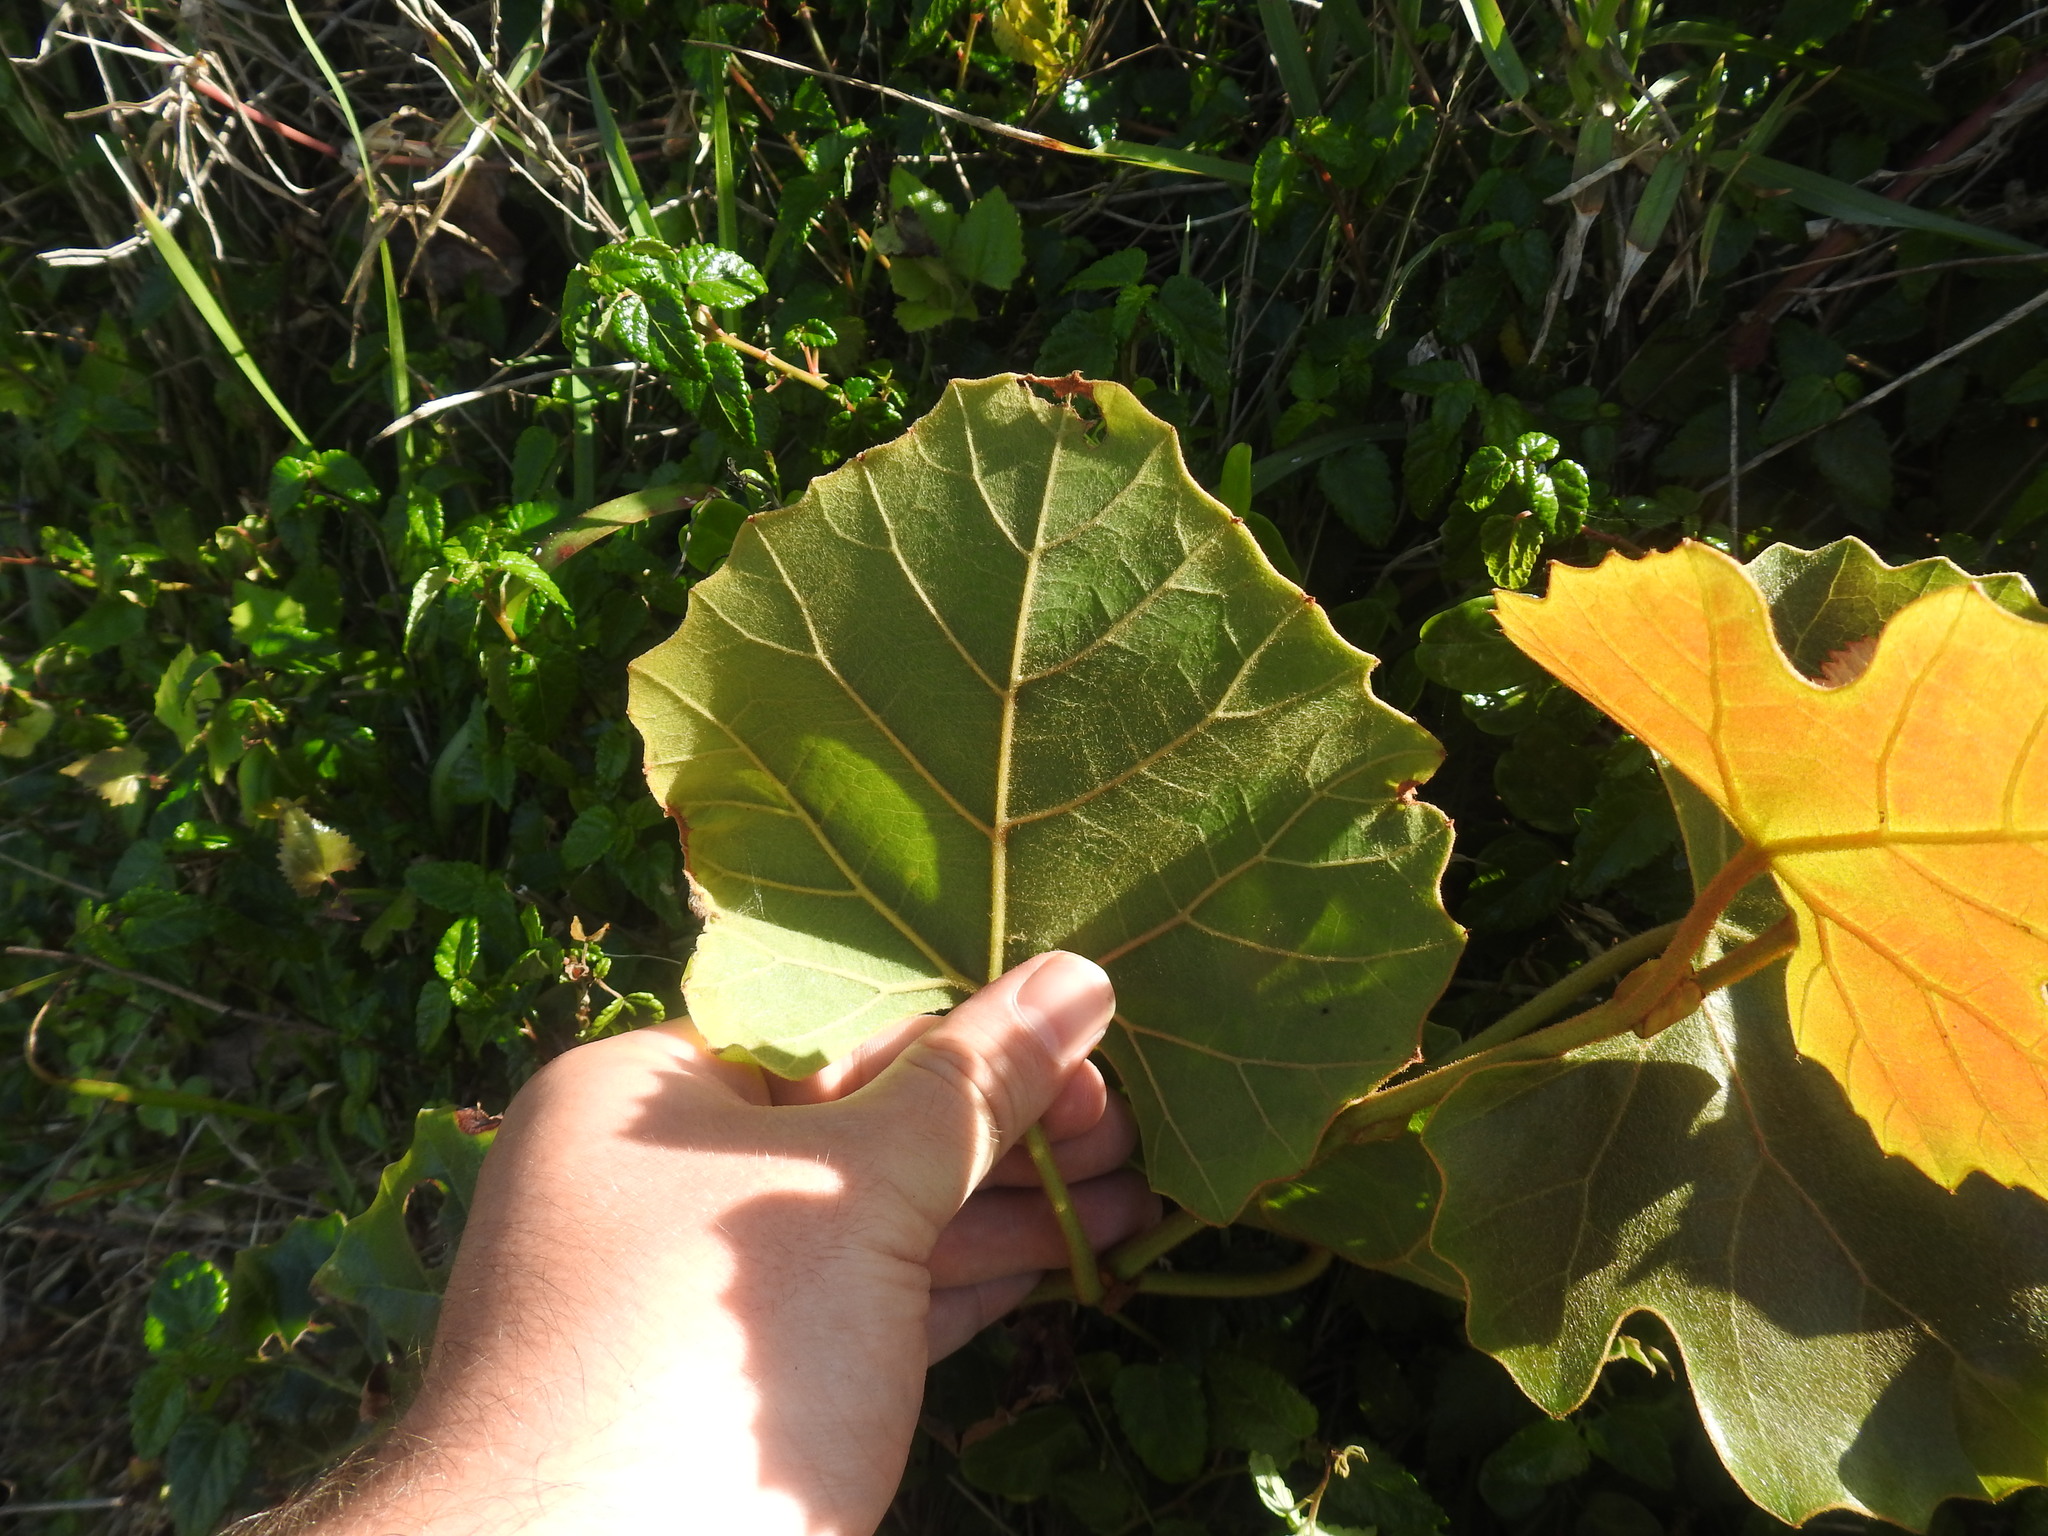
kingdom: Plantae
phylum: Tracheophyta
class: Magnoliopsida
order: Vitales
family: Vitaceae
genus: Rhoicissus
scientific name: Rhoicissus tomentosa
